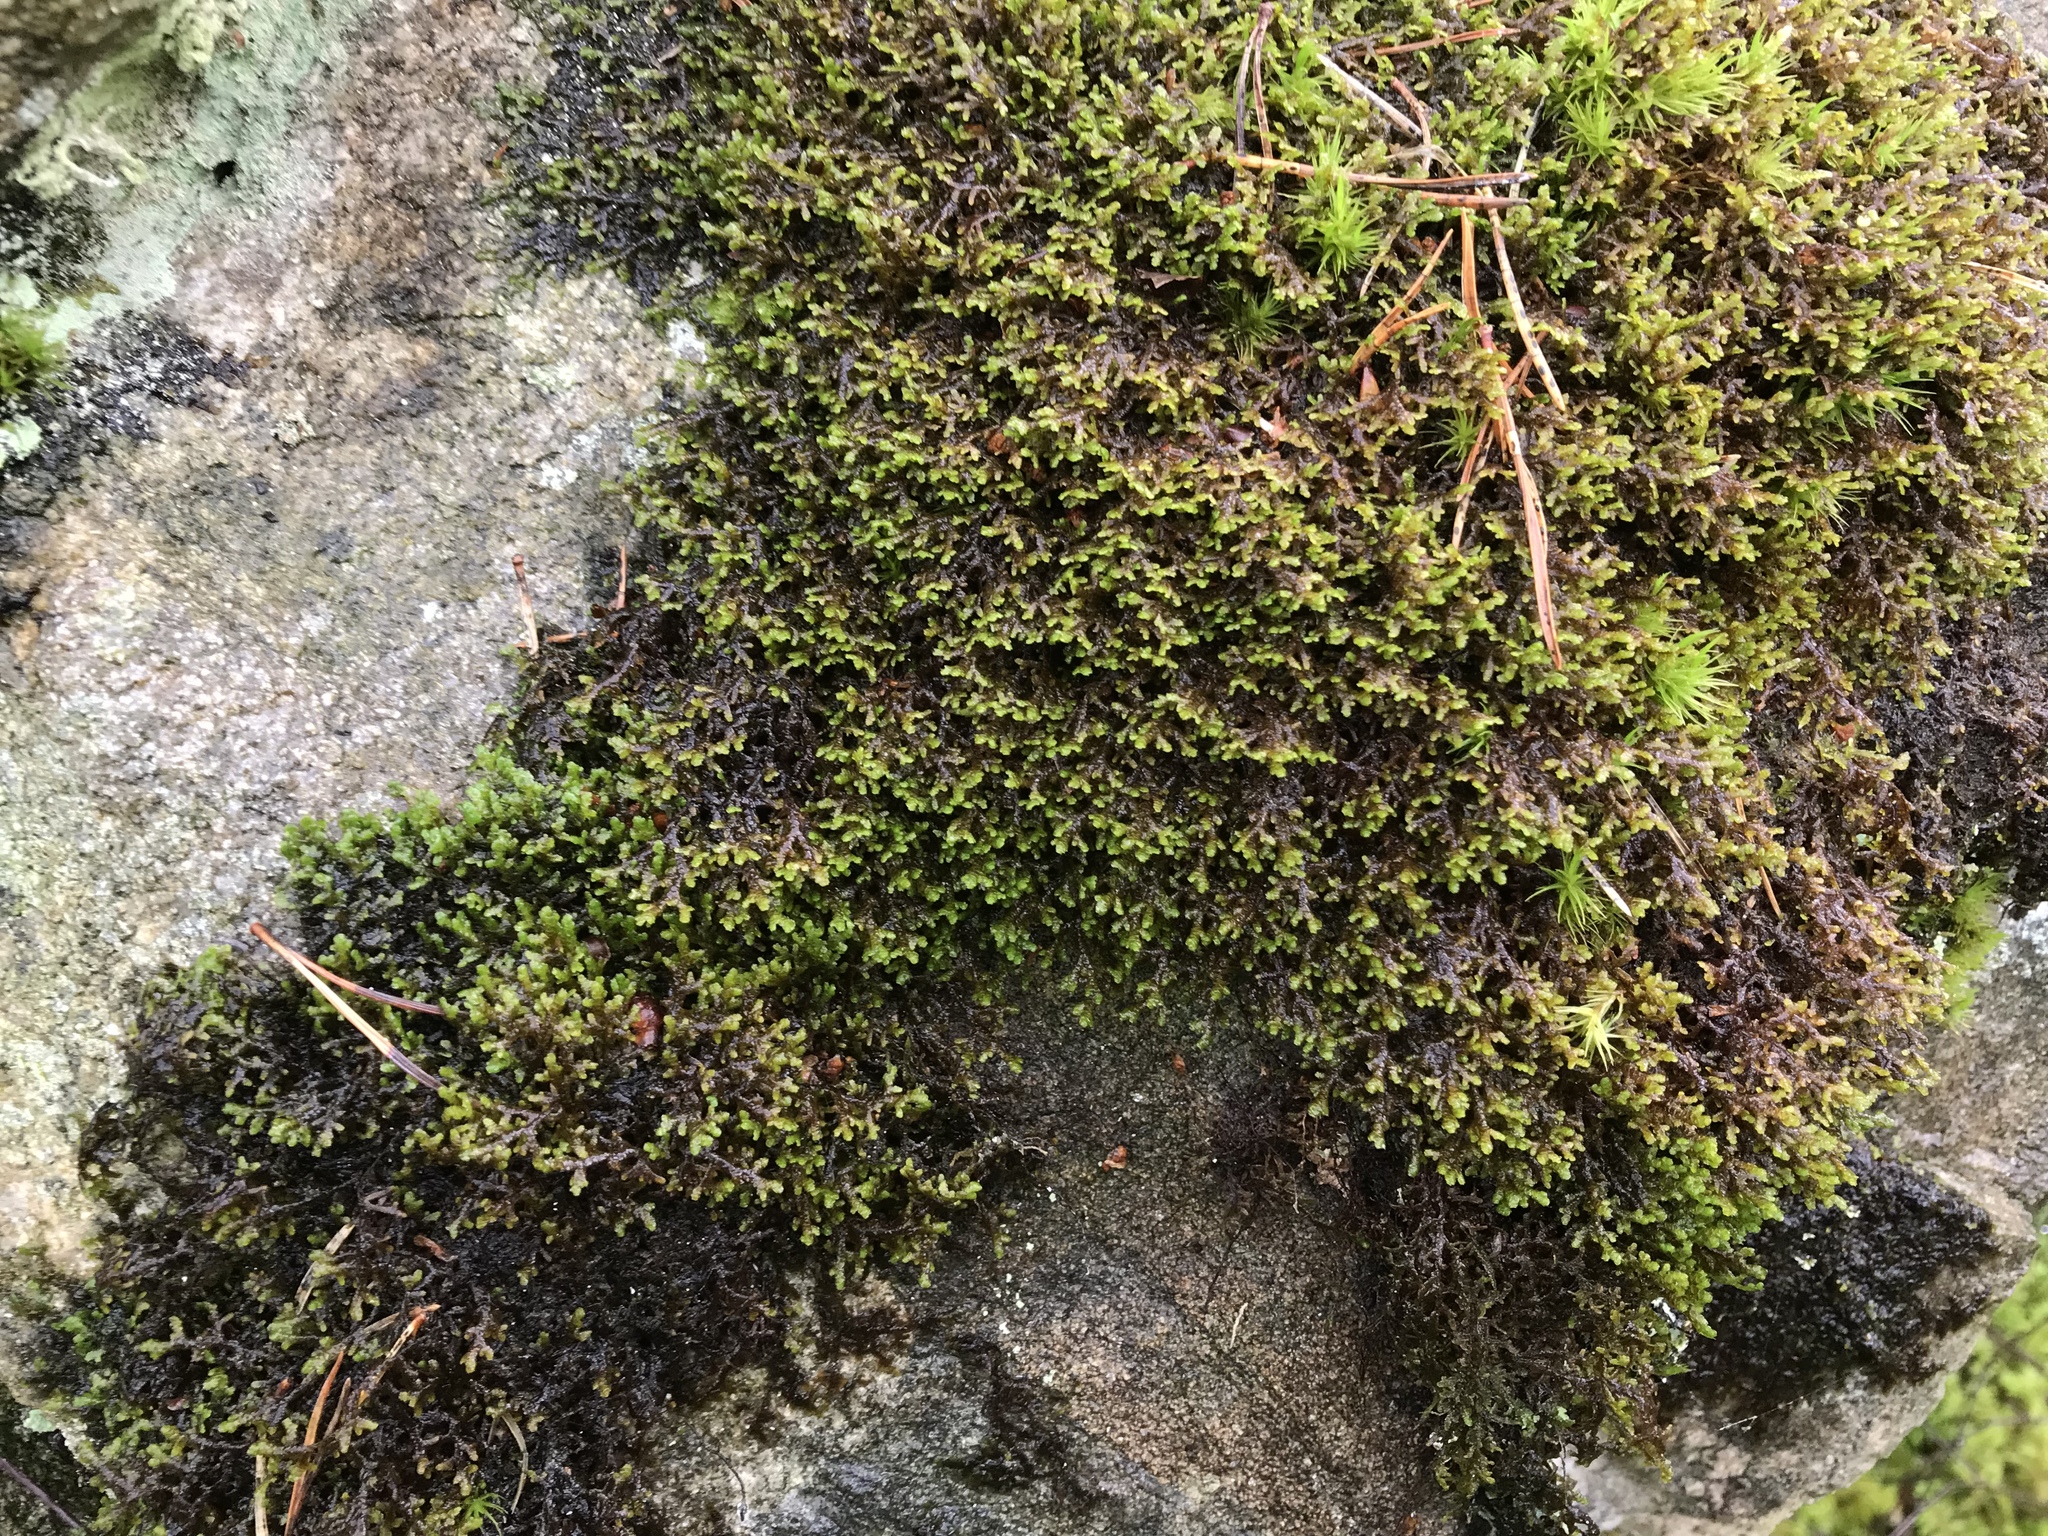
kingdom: Plantae
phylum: Marchantiophyta
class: Jungermanniopsida
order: Porellales
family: Frullaniaceae
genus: Frullania
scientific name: Frullania tamarisci
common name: Tamarisk scalewort
